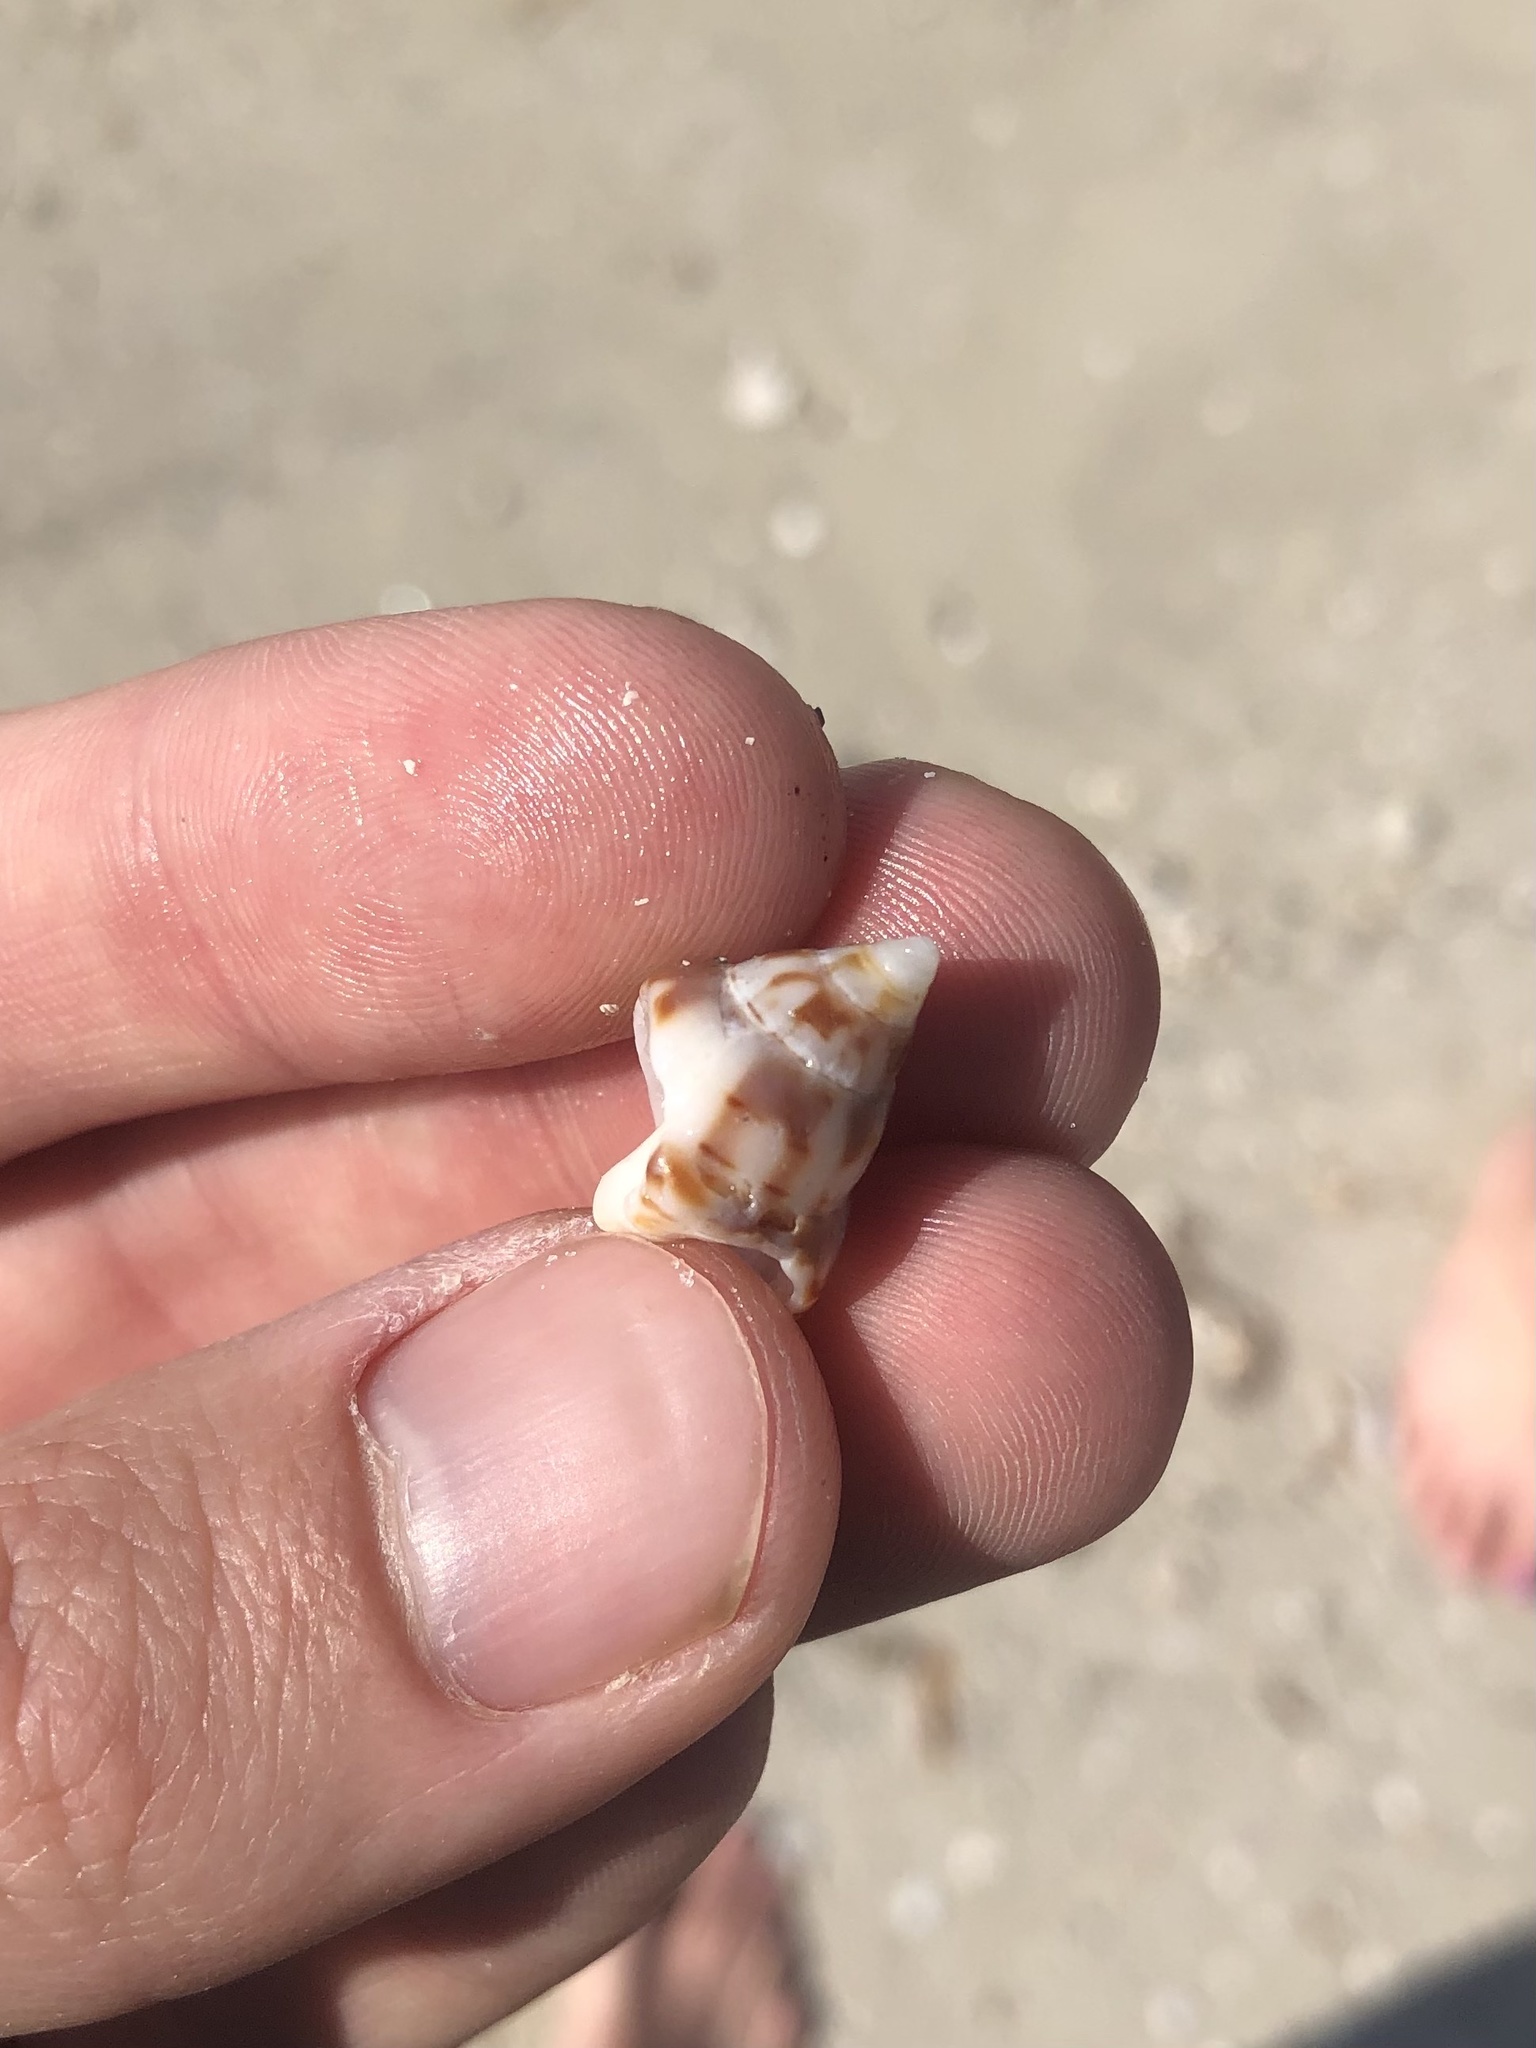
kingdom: Animalia
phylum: Mollusca
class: Gastropoda
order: Neogastropoda
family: Fasciolariidae
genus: Cinctura
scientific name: Cinctura hunteria
